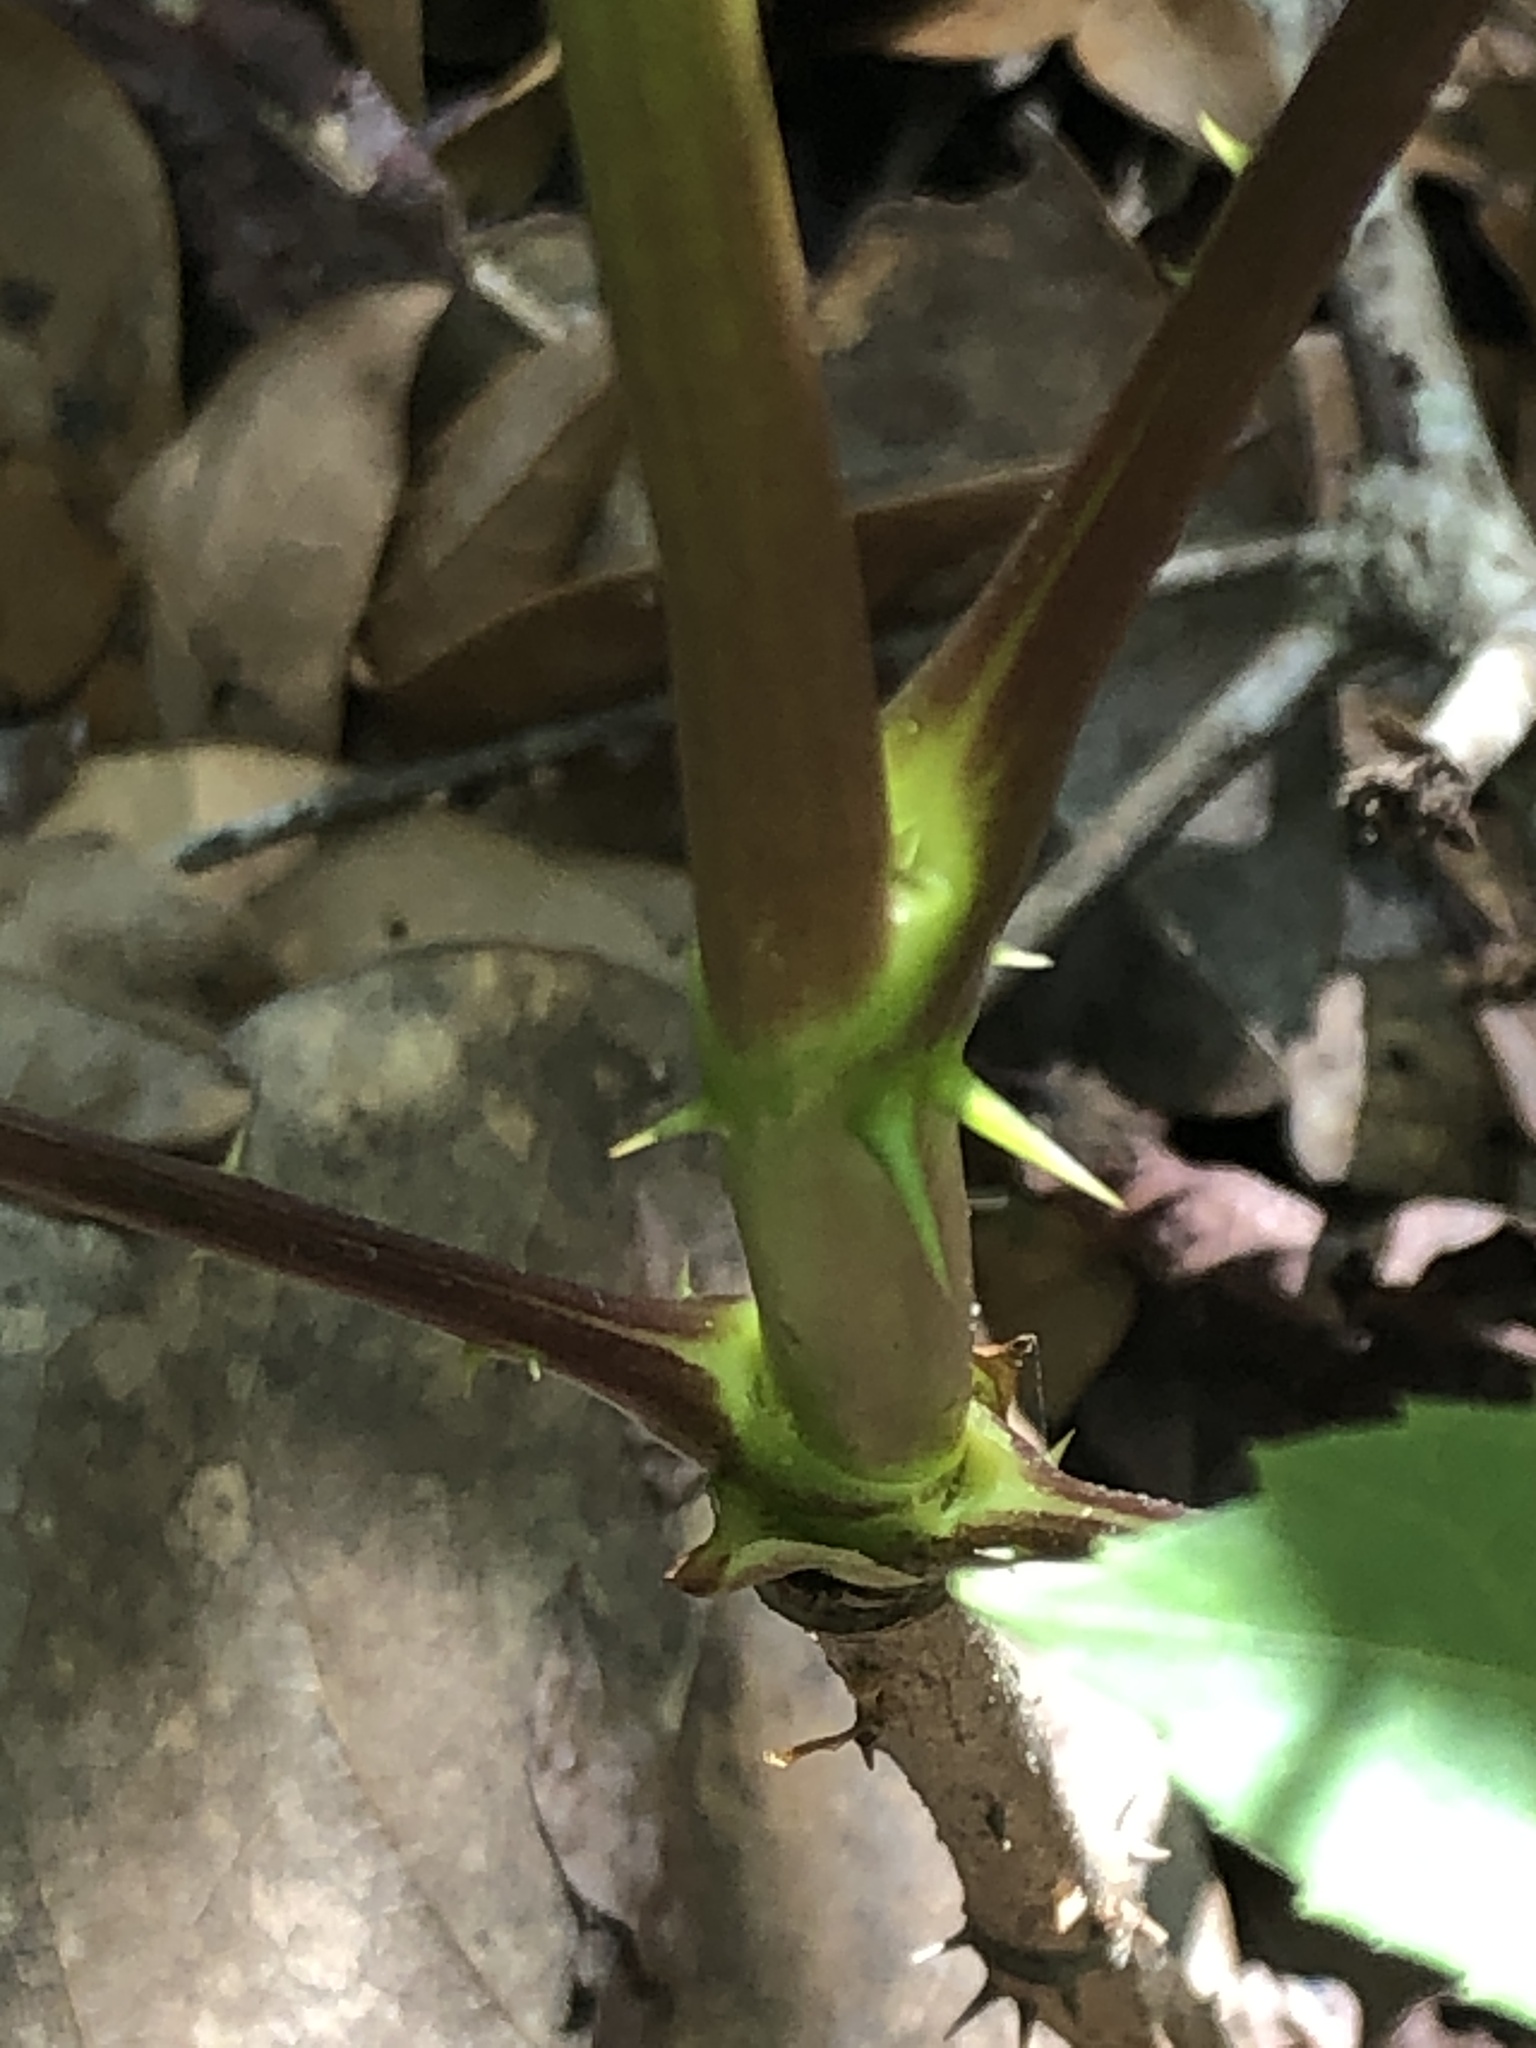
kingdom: Plantae
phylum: Tracheophyta
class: Magnoliopsida
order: Apiales
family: Araliaceae
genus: Aralia
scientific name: Aralia spinosa
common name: Hercules'-club
